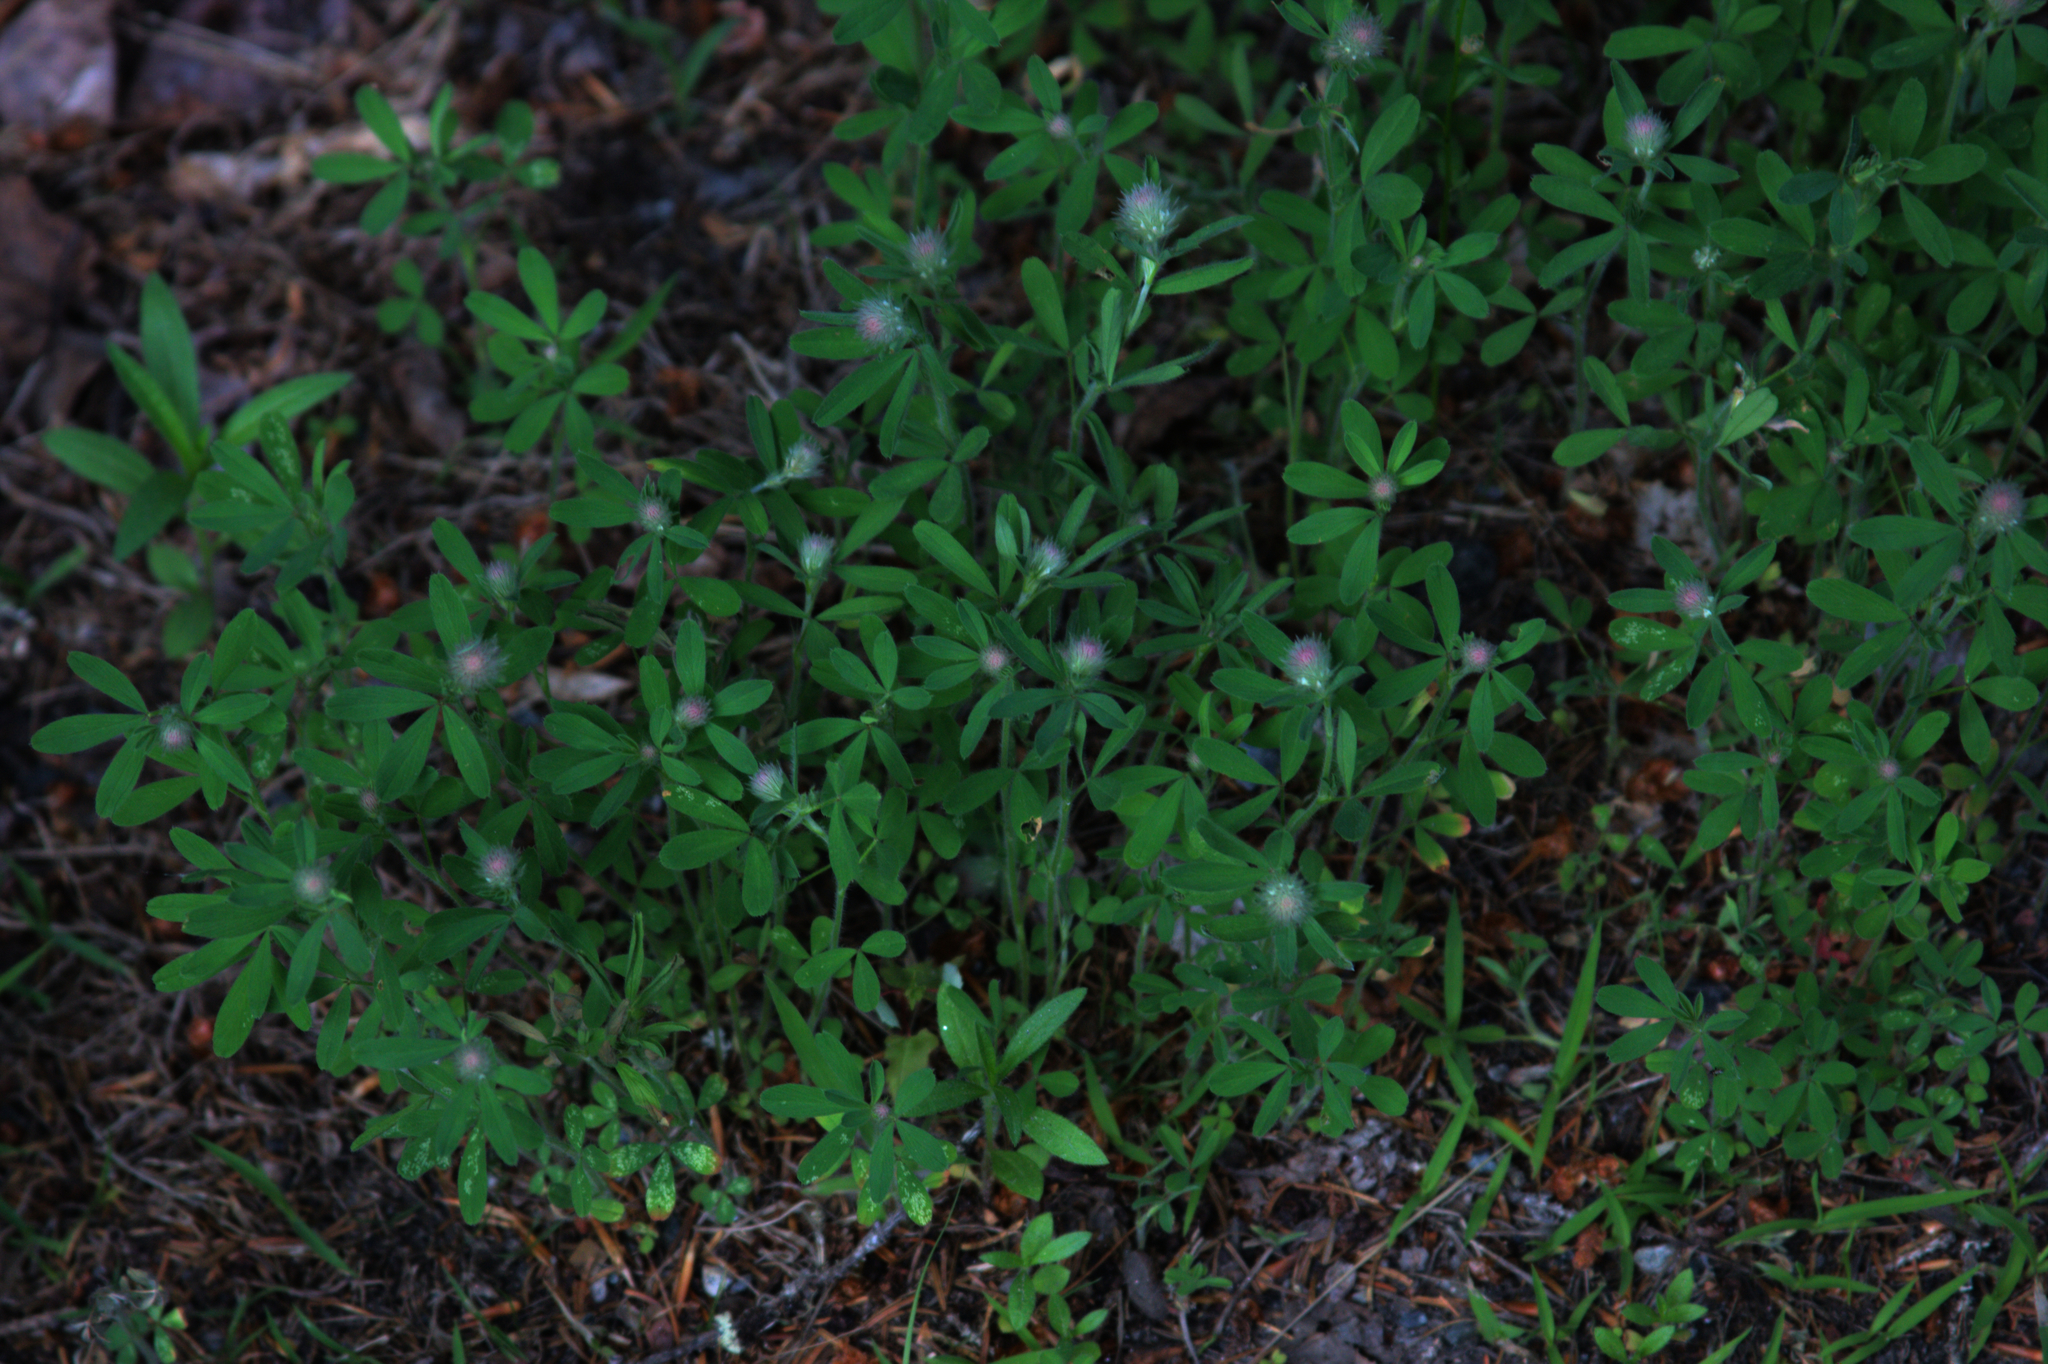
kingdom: Plantae
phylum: Tracheophyta
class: Magnoliopsida
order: Fabales
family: Fabaceae
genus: Trifolium
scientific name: Trifolium arvense
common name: Hare's-foot clover
